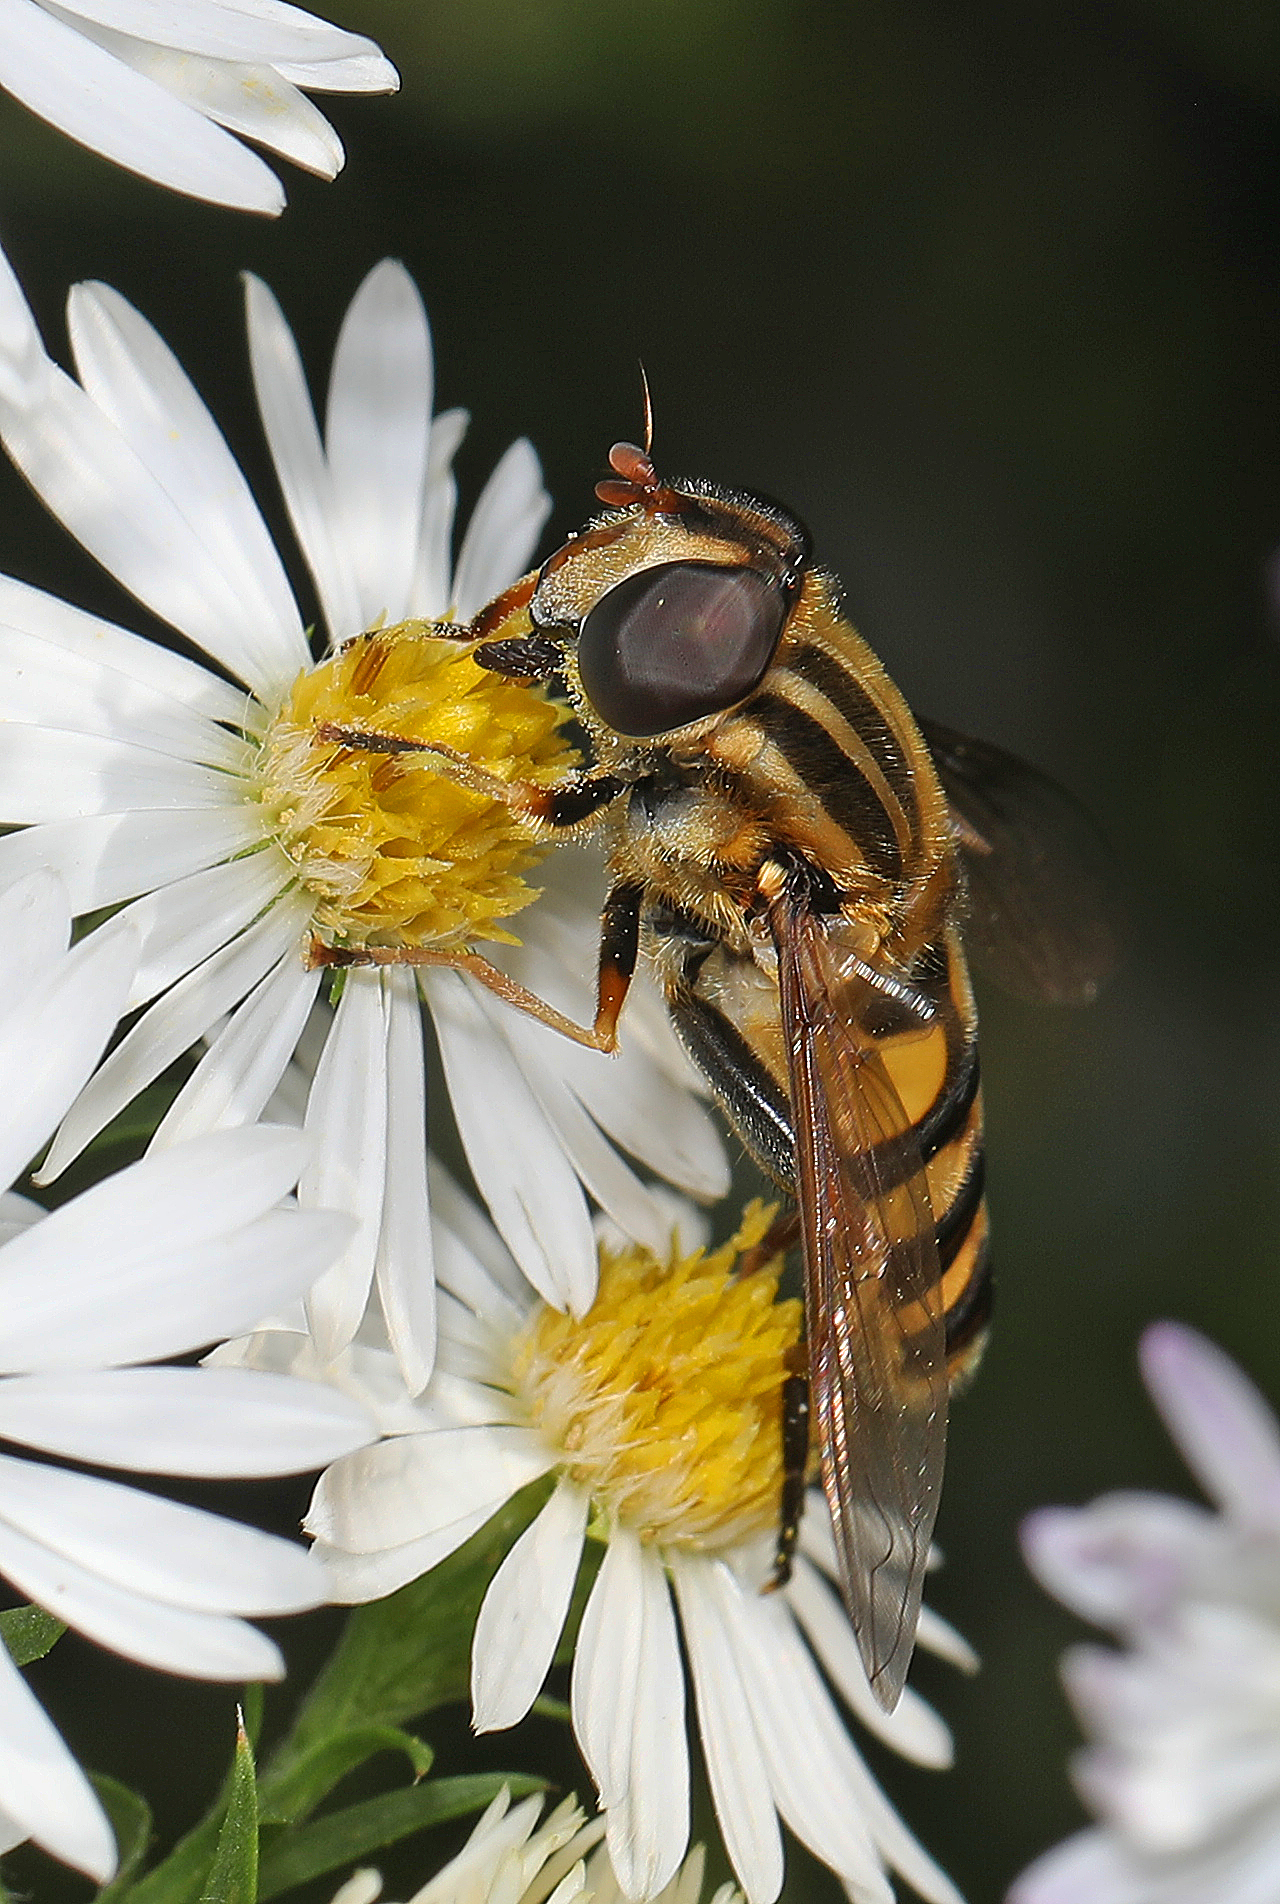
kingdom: Animalia
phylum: Arthropoda
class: Insecta
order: Diptera
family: Syrphidae
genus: Helophilus
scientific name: Helophilus fasciatus
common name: Narrow-headed marsh fly
